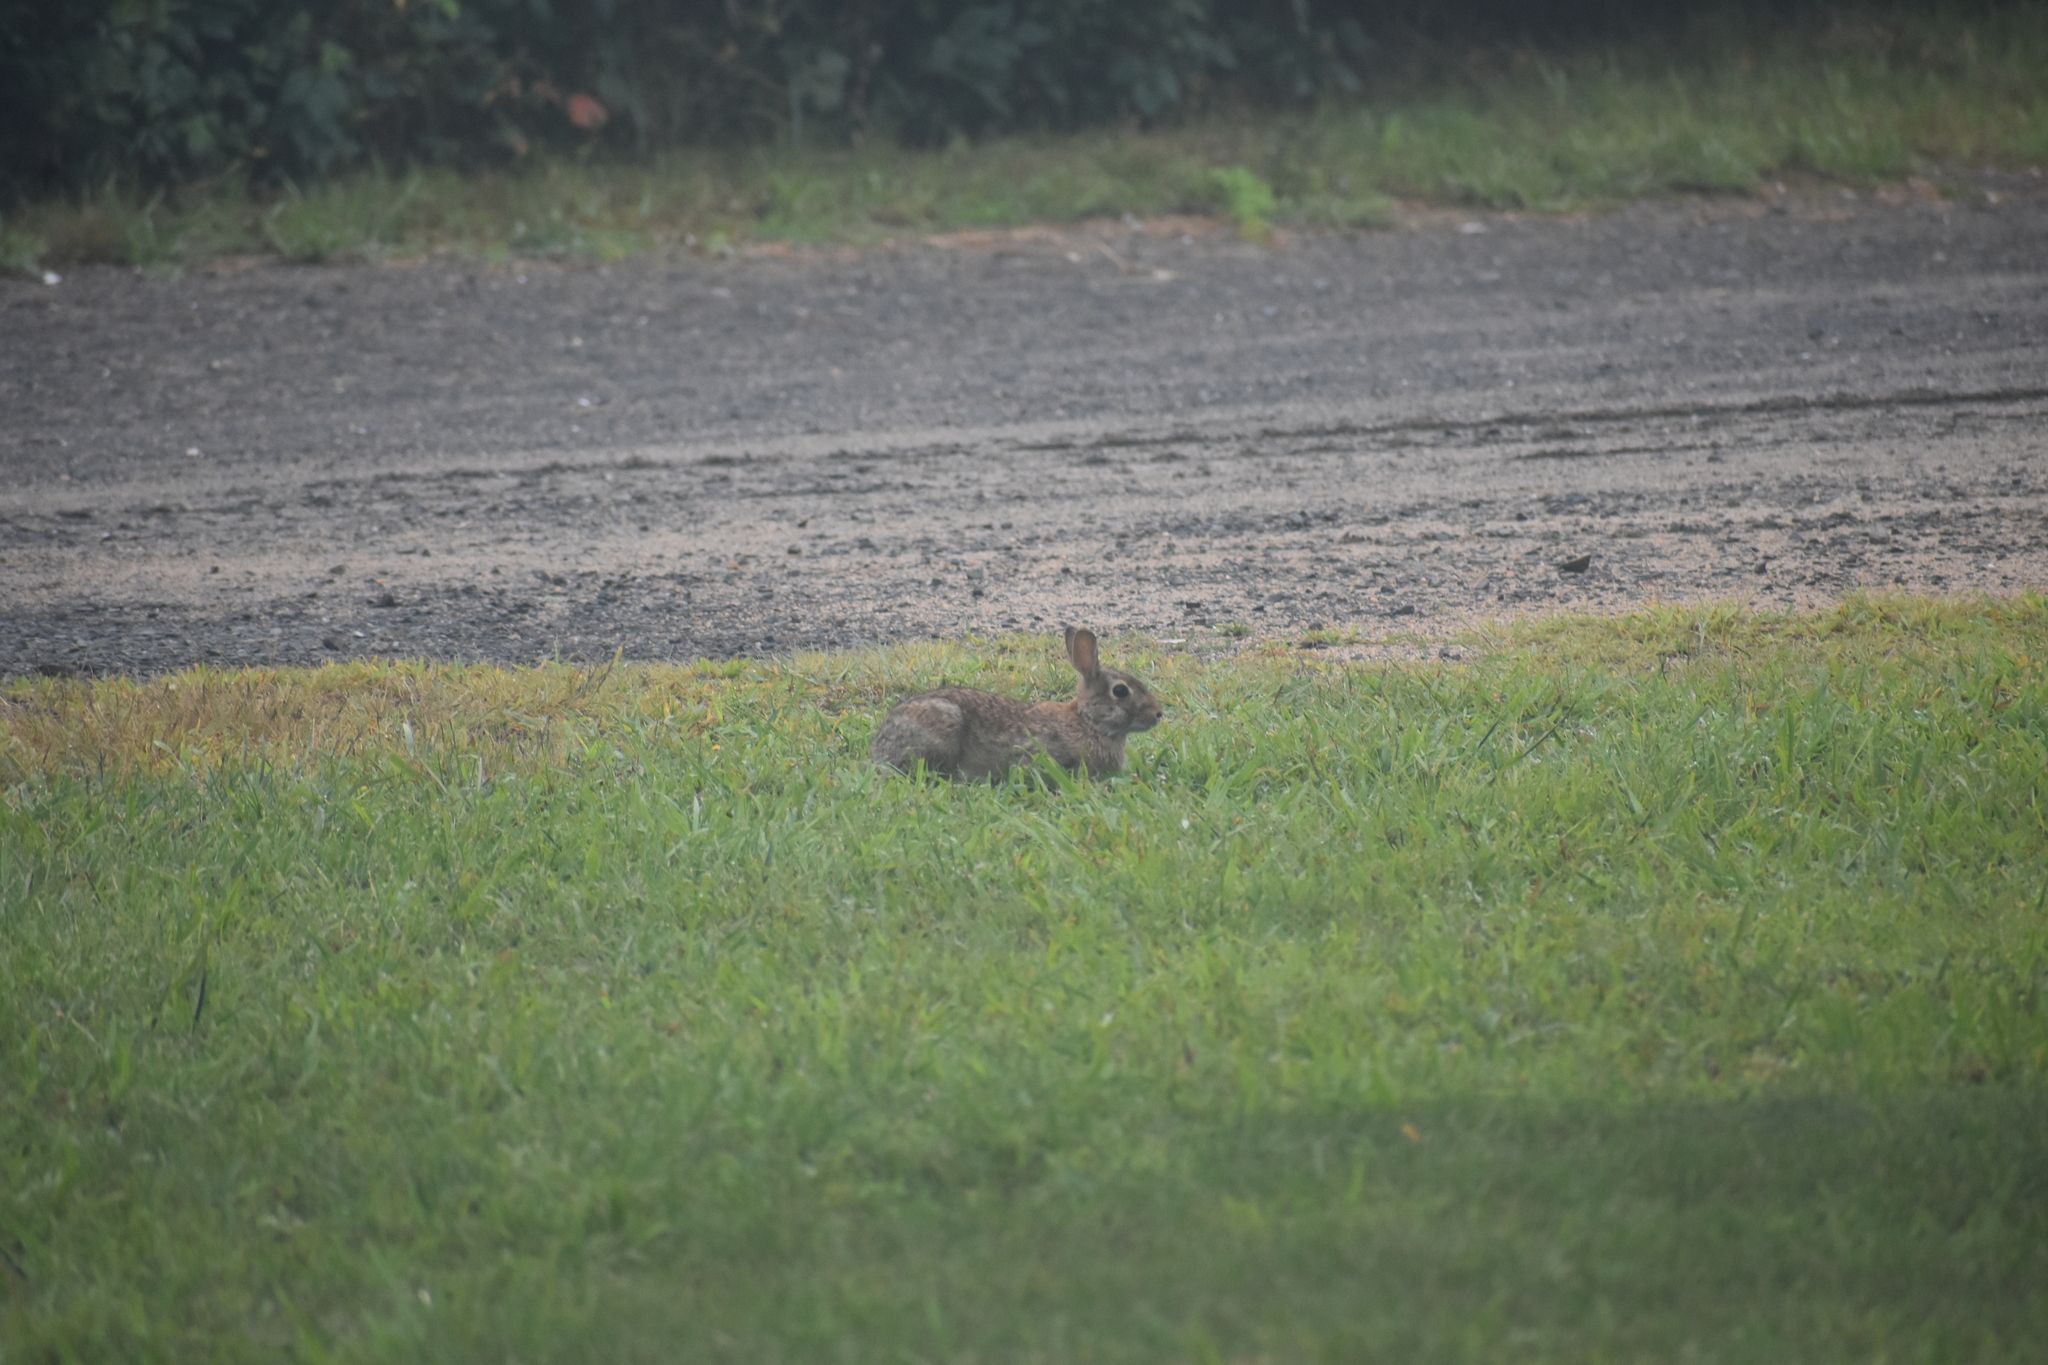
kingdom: Animalia
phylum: Chordata
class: Mammalia
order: Lagomorpha
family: Leporidae
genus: Sylvilagus
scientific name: Sylvilagus floridanus
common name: Eastern cottontail
